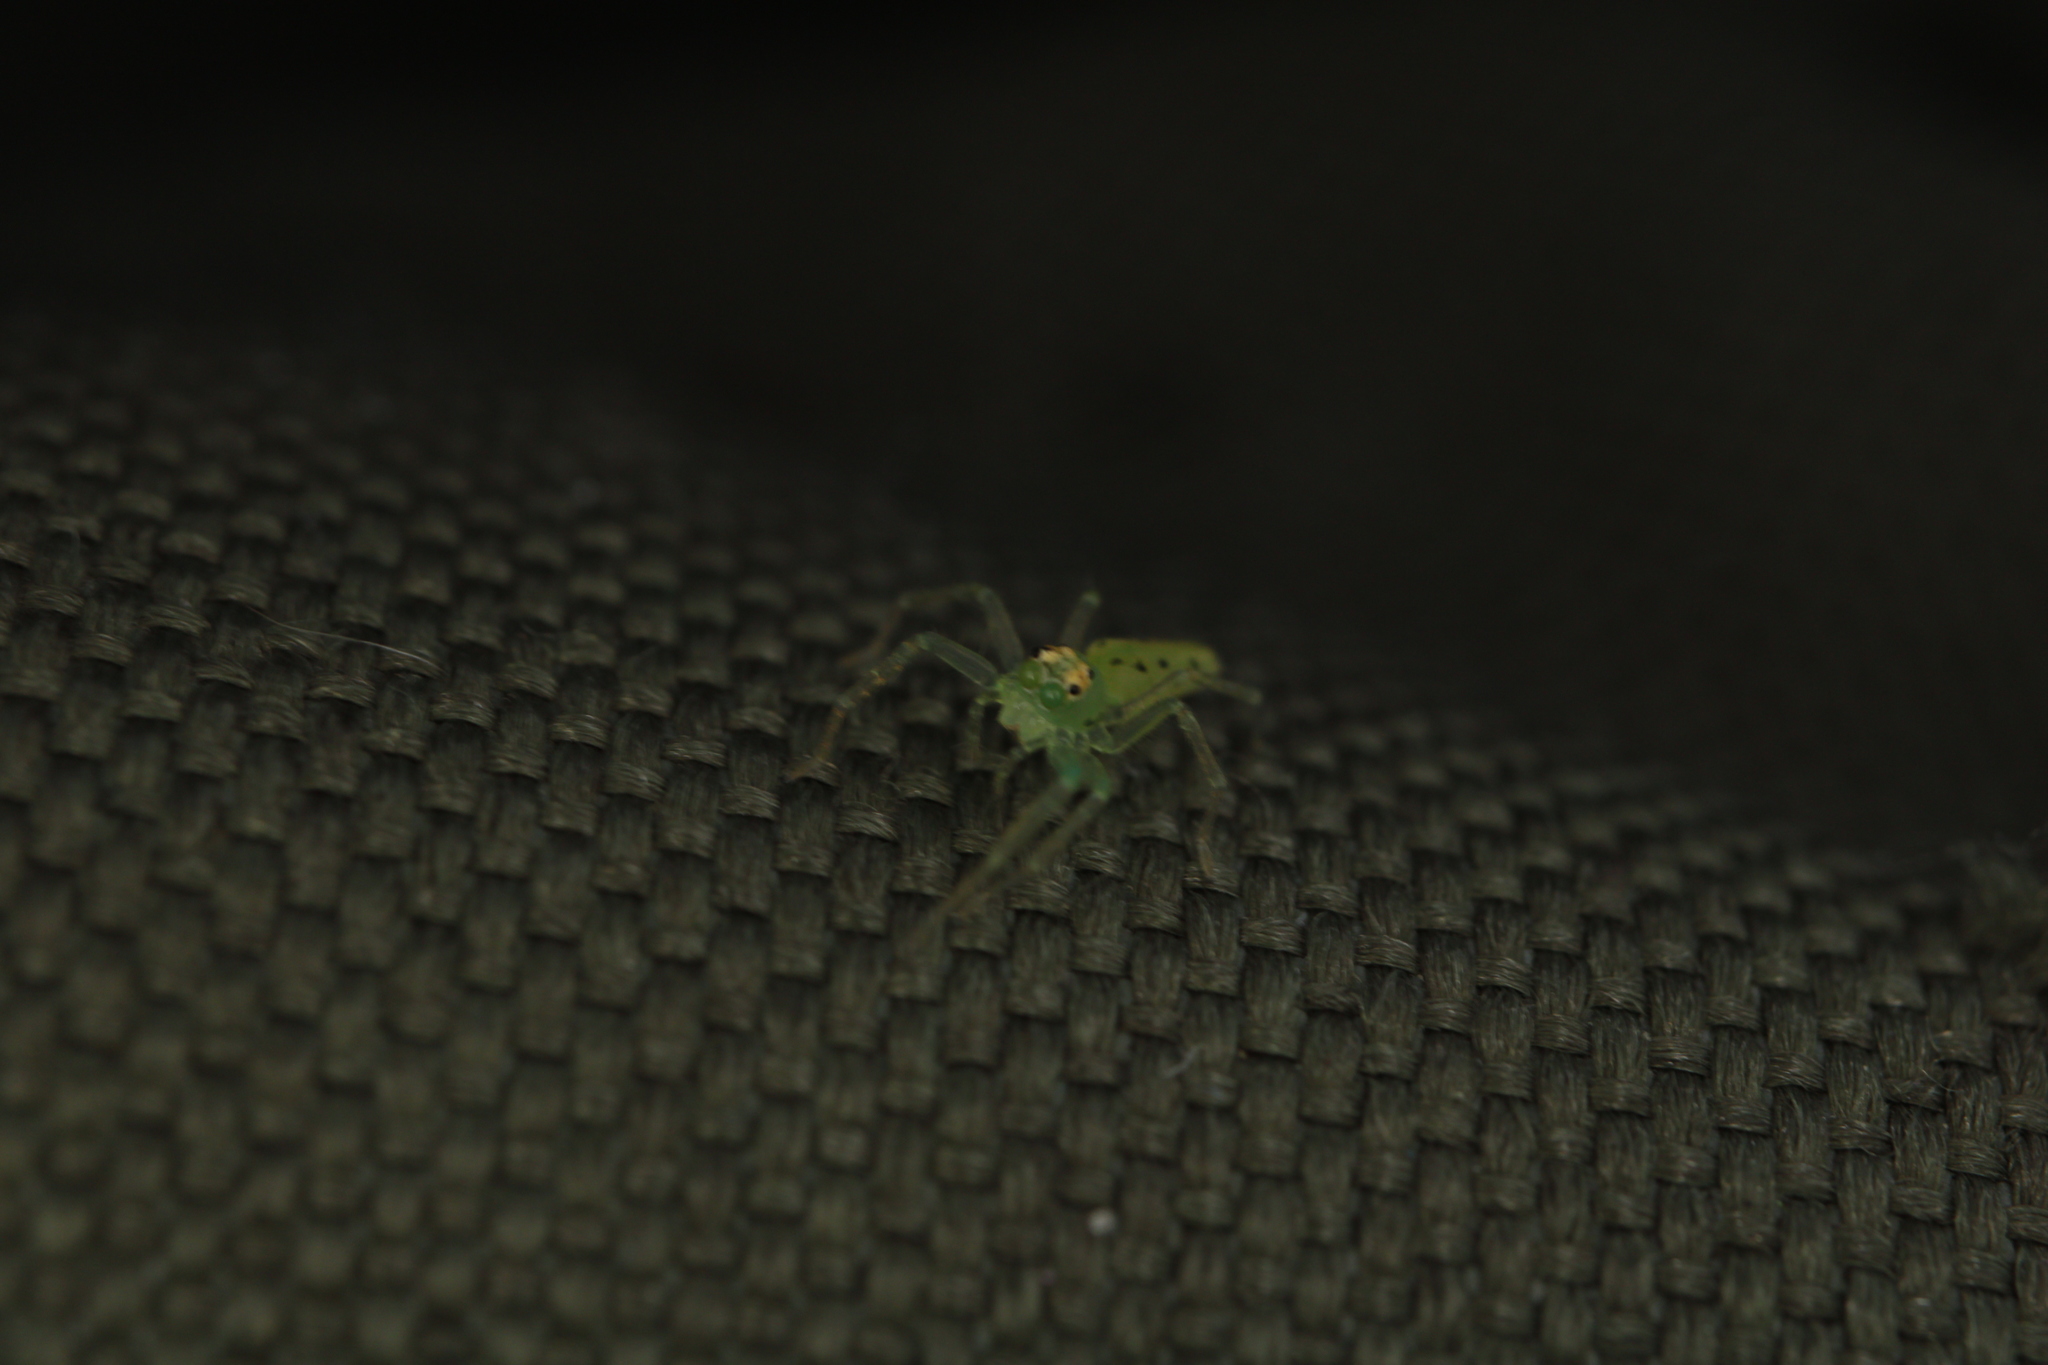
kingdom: Animalia
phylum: Arthropoda
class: Arachnida
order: Araneae
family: Salticidae
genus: Lyssomanes
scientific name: Lyssomanes viridis
